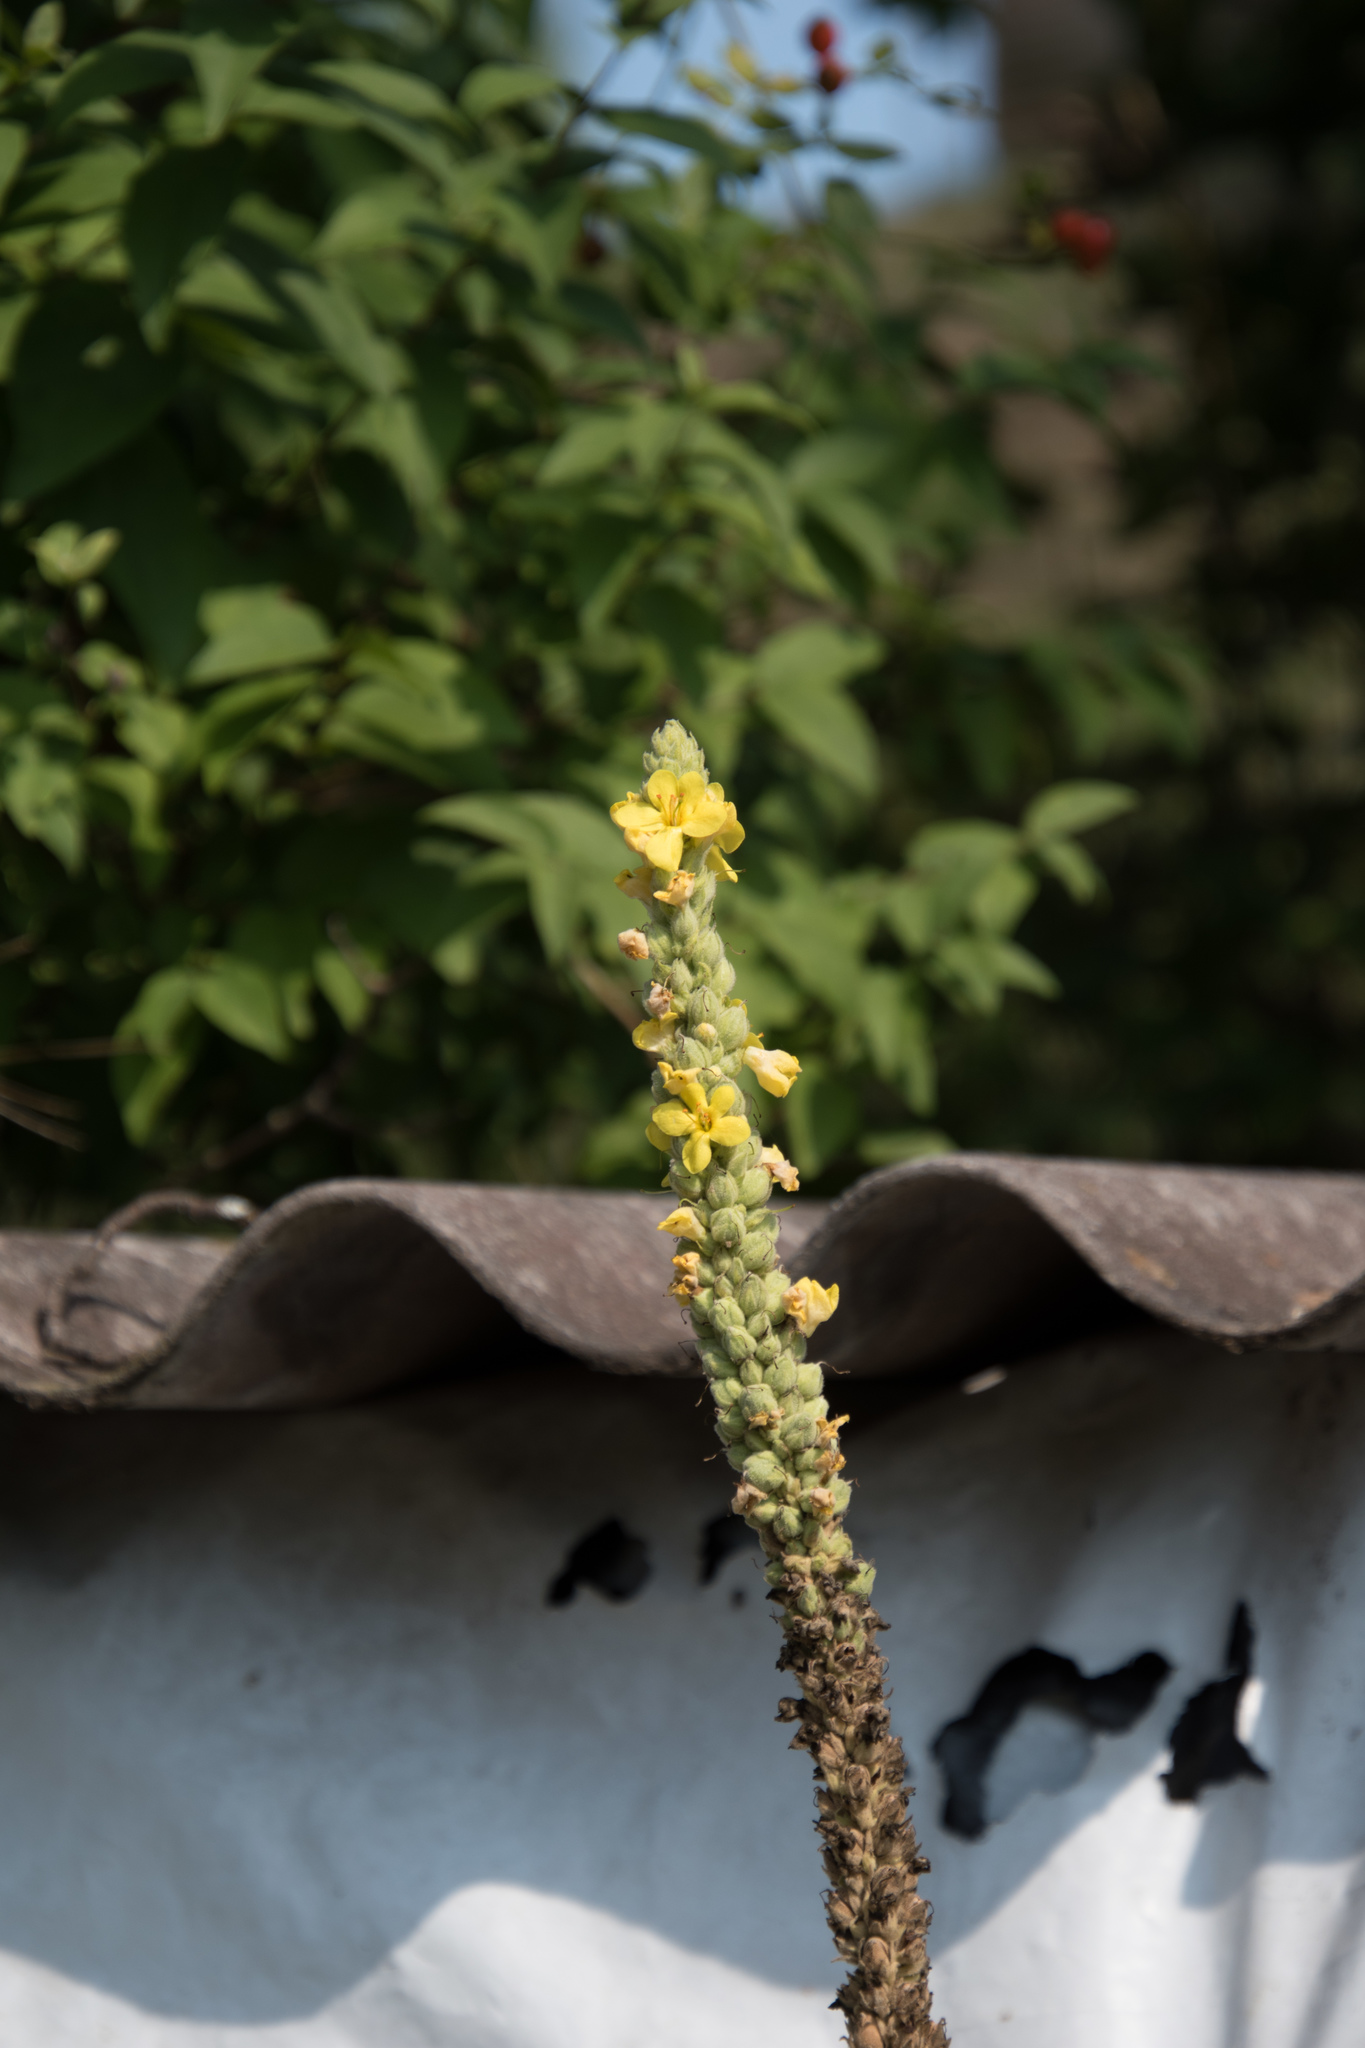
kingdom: Plantae
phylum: Tracheophyta
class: Magnoliopsida
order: Lamiales
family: Scrophulariaceae
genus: Verbascum
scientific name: Verbascum thapsus
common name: Common mullein
